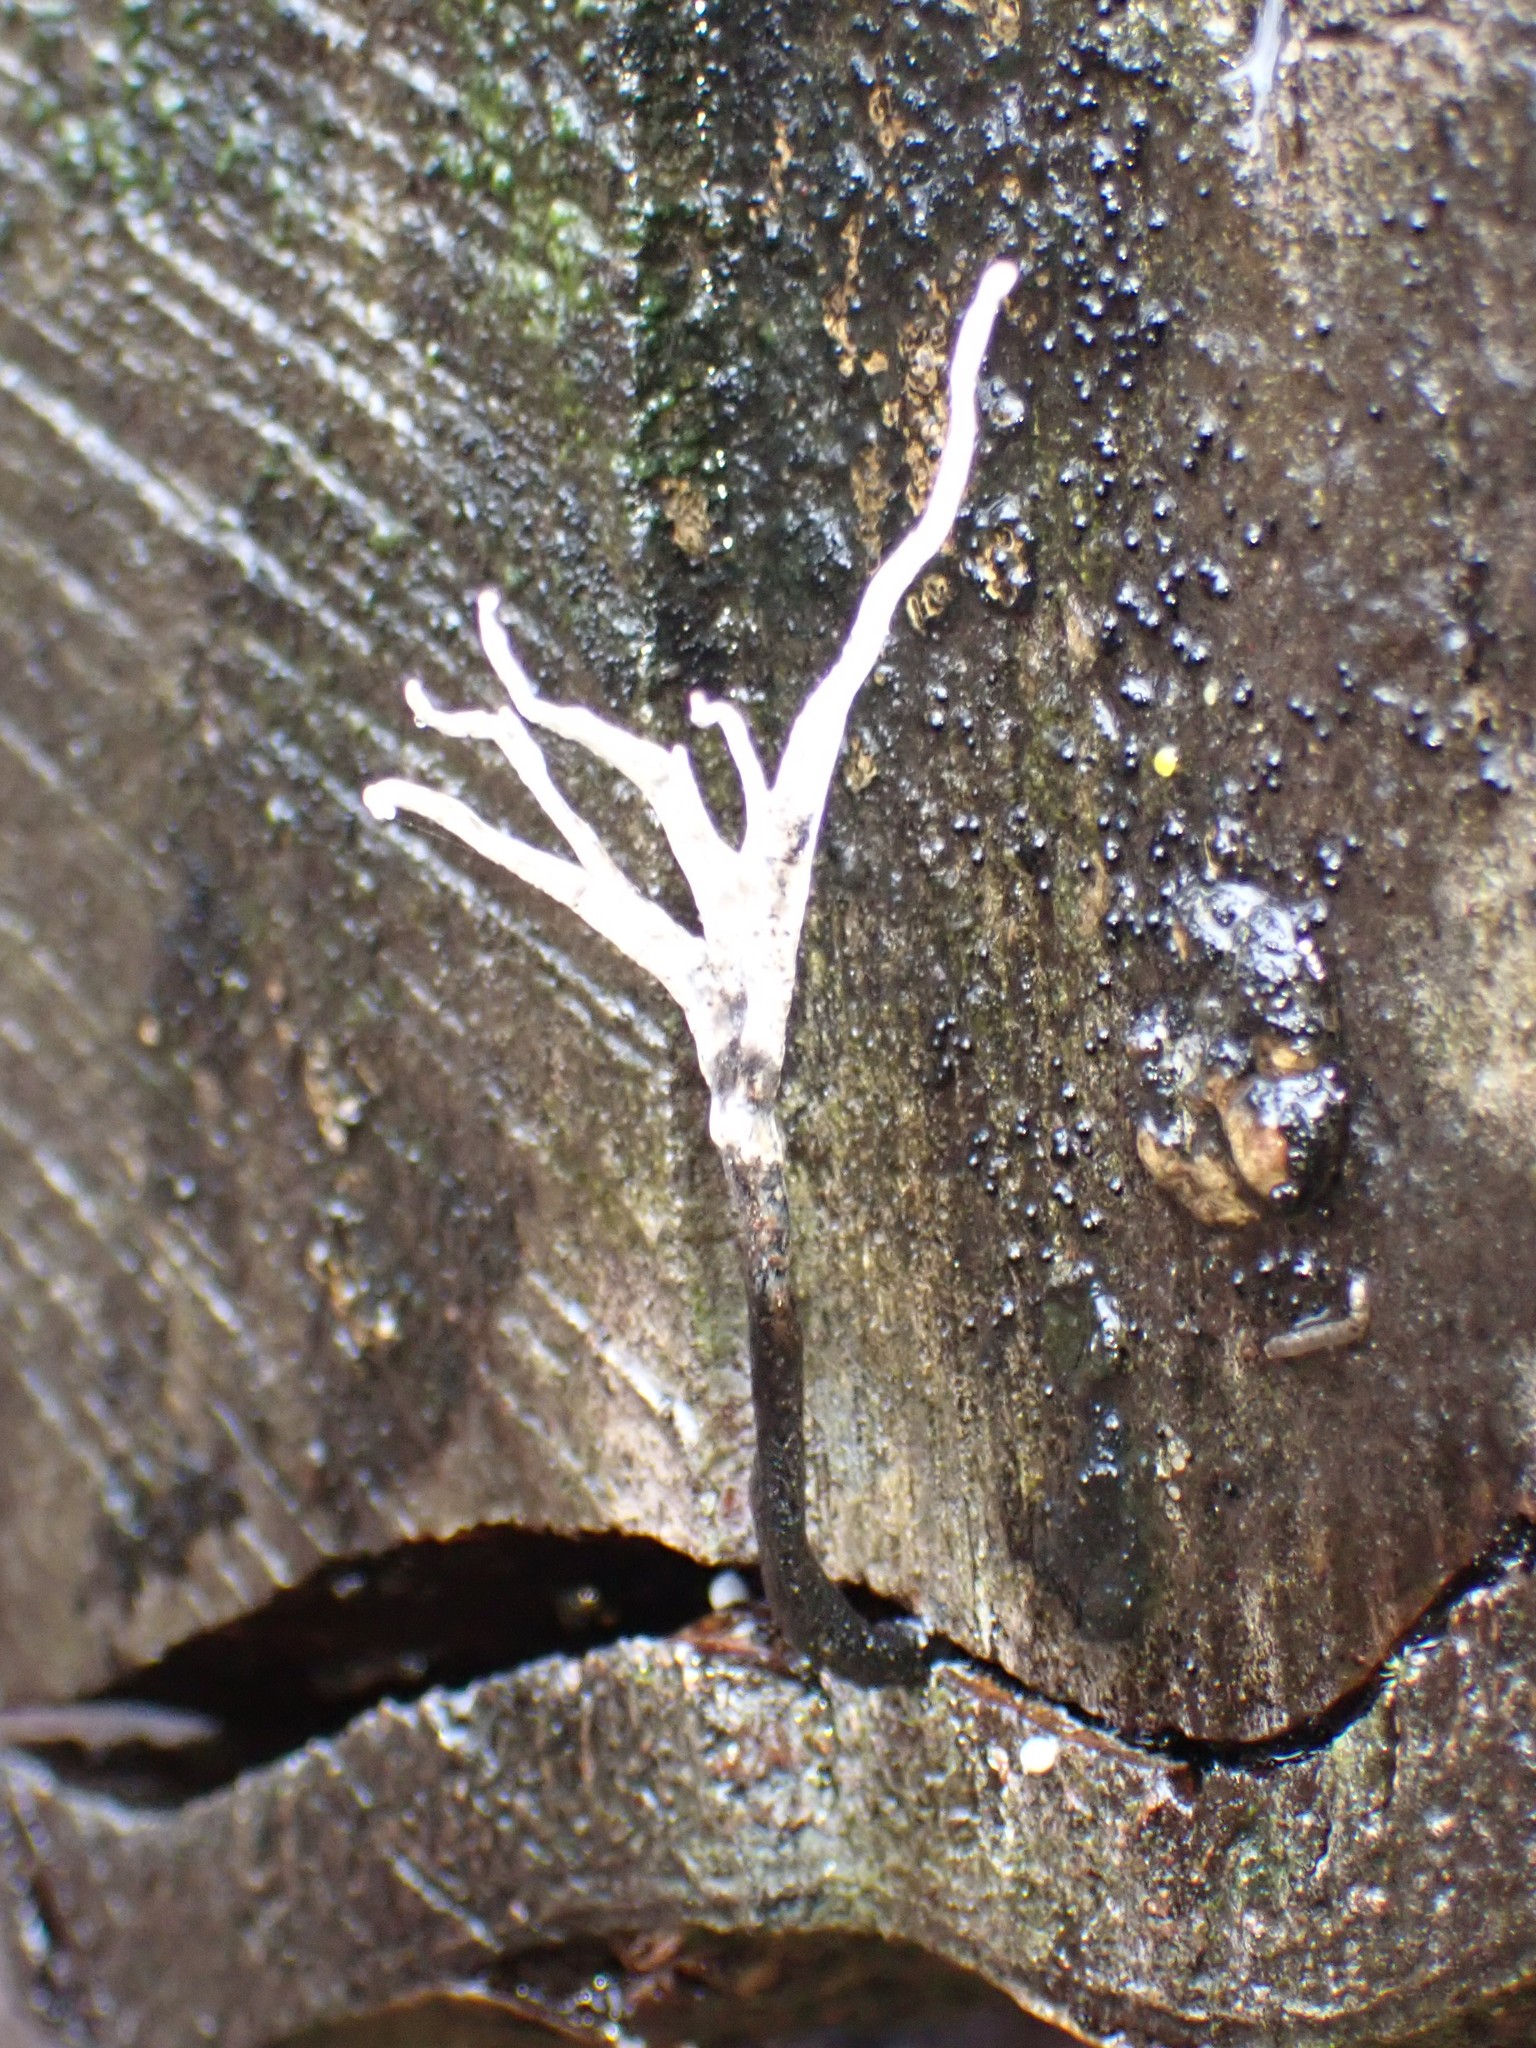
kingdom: Fungi
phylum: Ascomycota
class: Sordariomycetes
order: Xylariales
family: Xylariaceae
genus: Xylaria
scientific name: Xylaria hypoxylon
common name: Candle-snuff fungus
